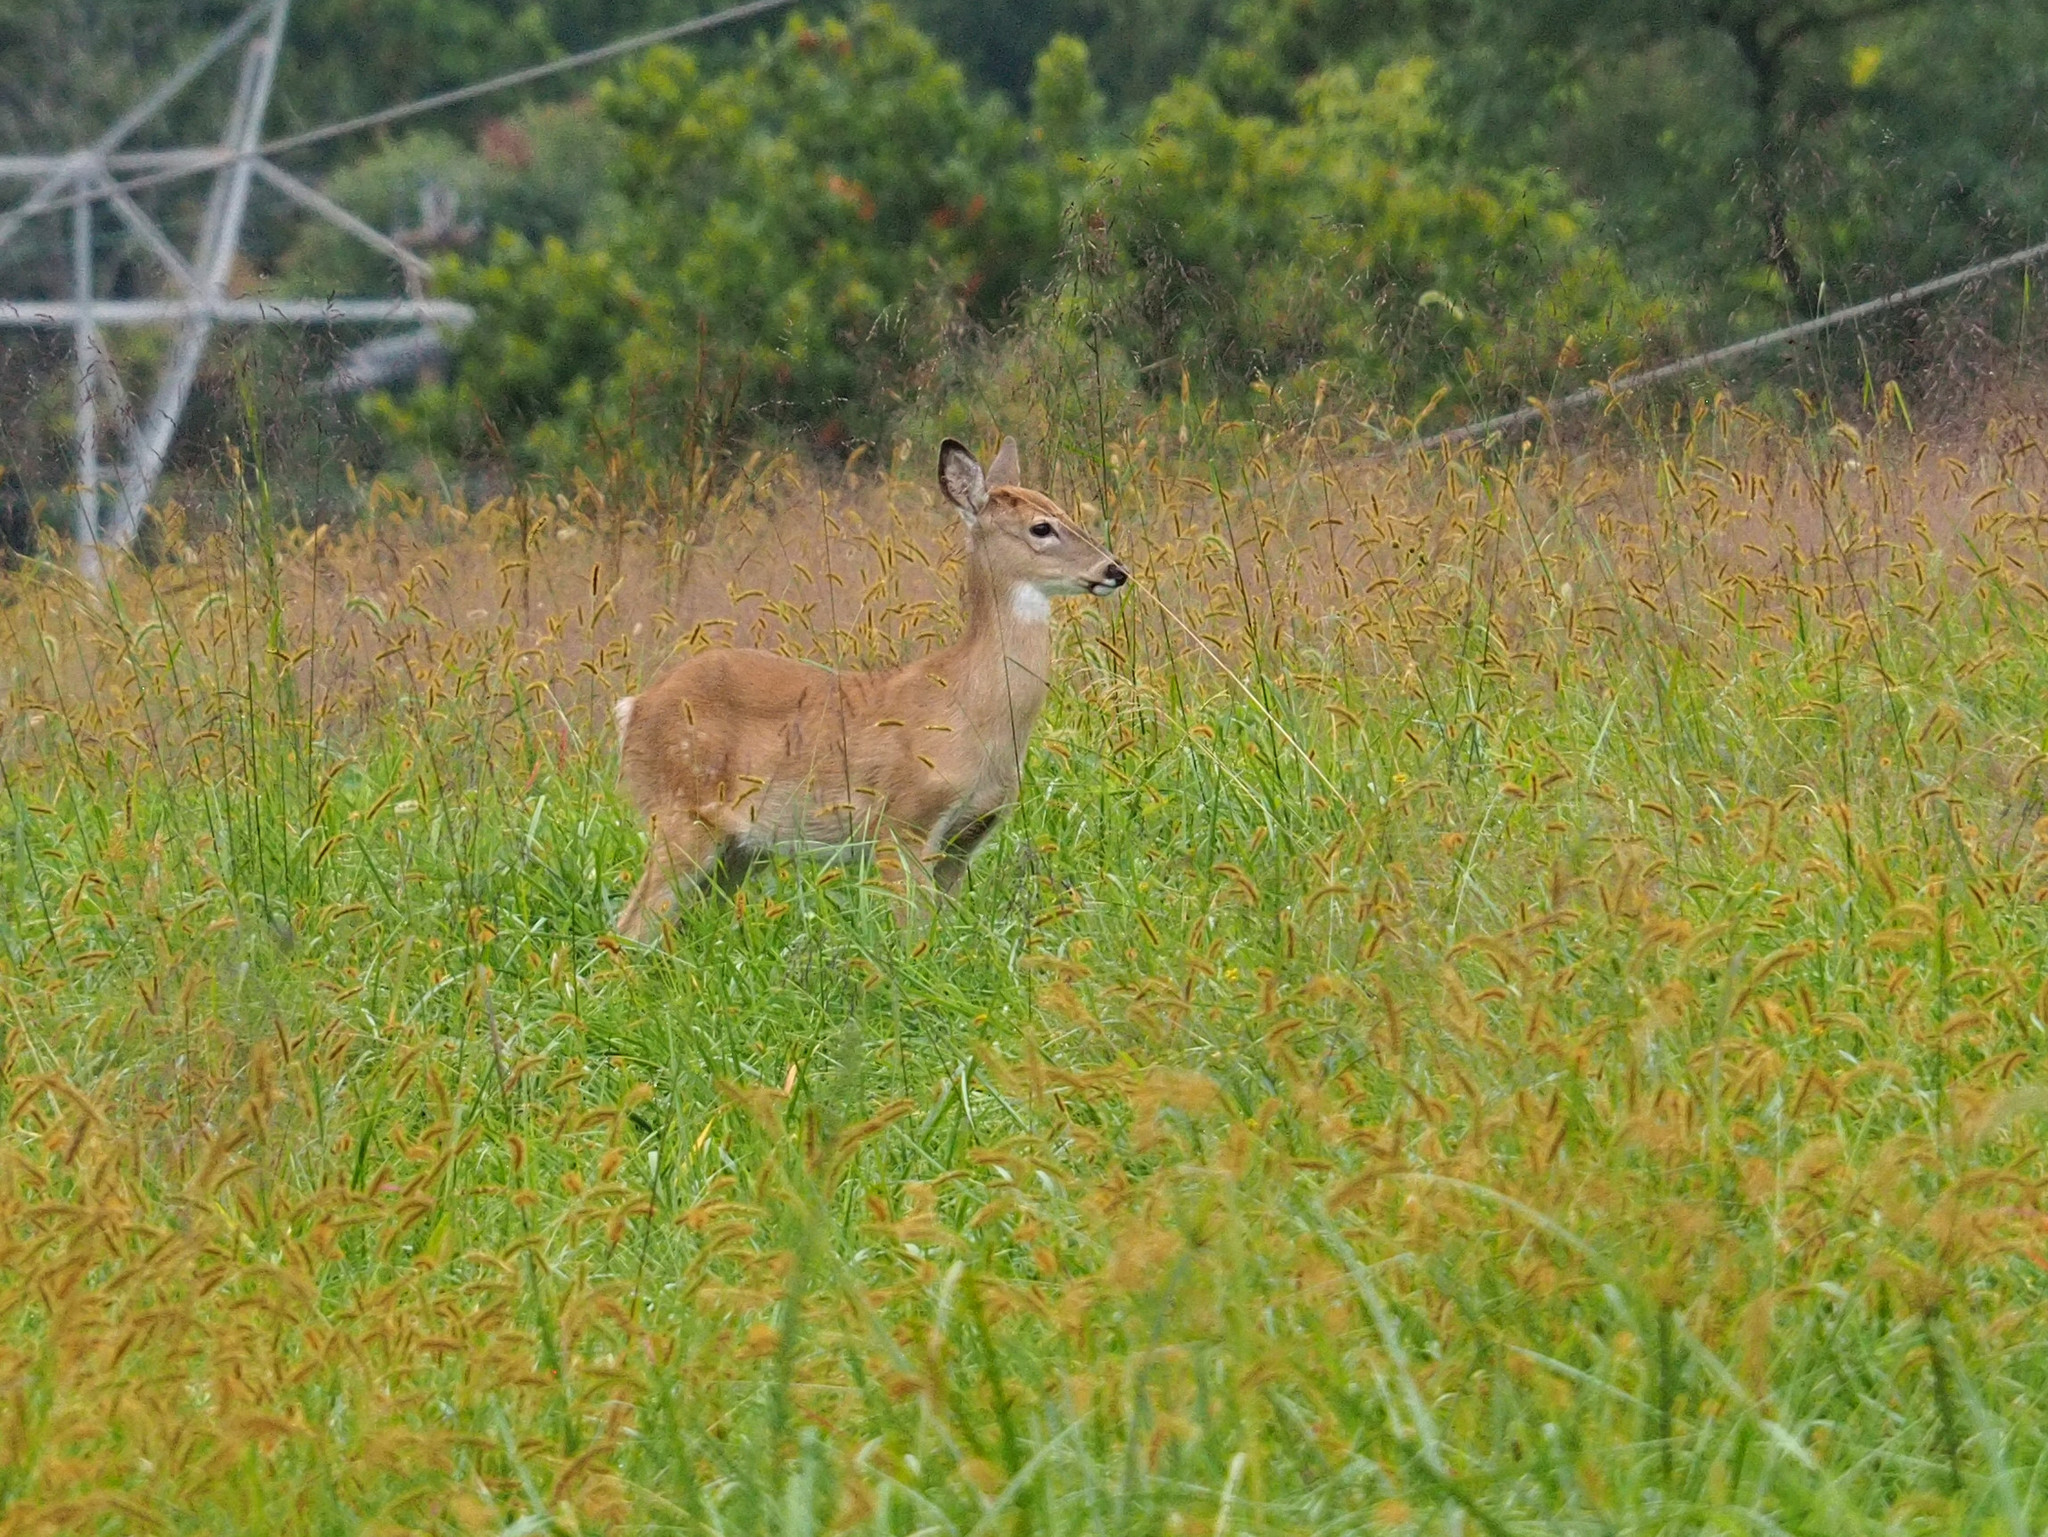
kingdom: Animalia
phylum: Chordata
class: Mammalia
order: Artiodactyla
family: Cervidae
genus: Odocoileus
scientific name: Odocoileus virginianus
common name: White-tailed deer
